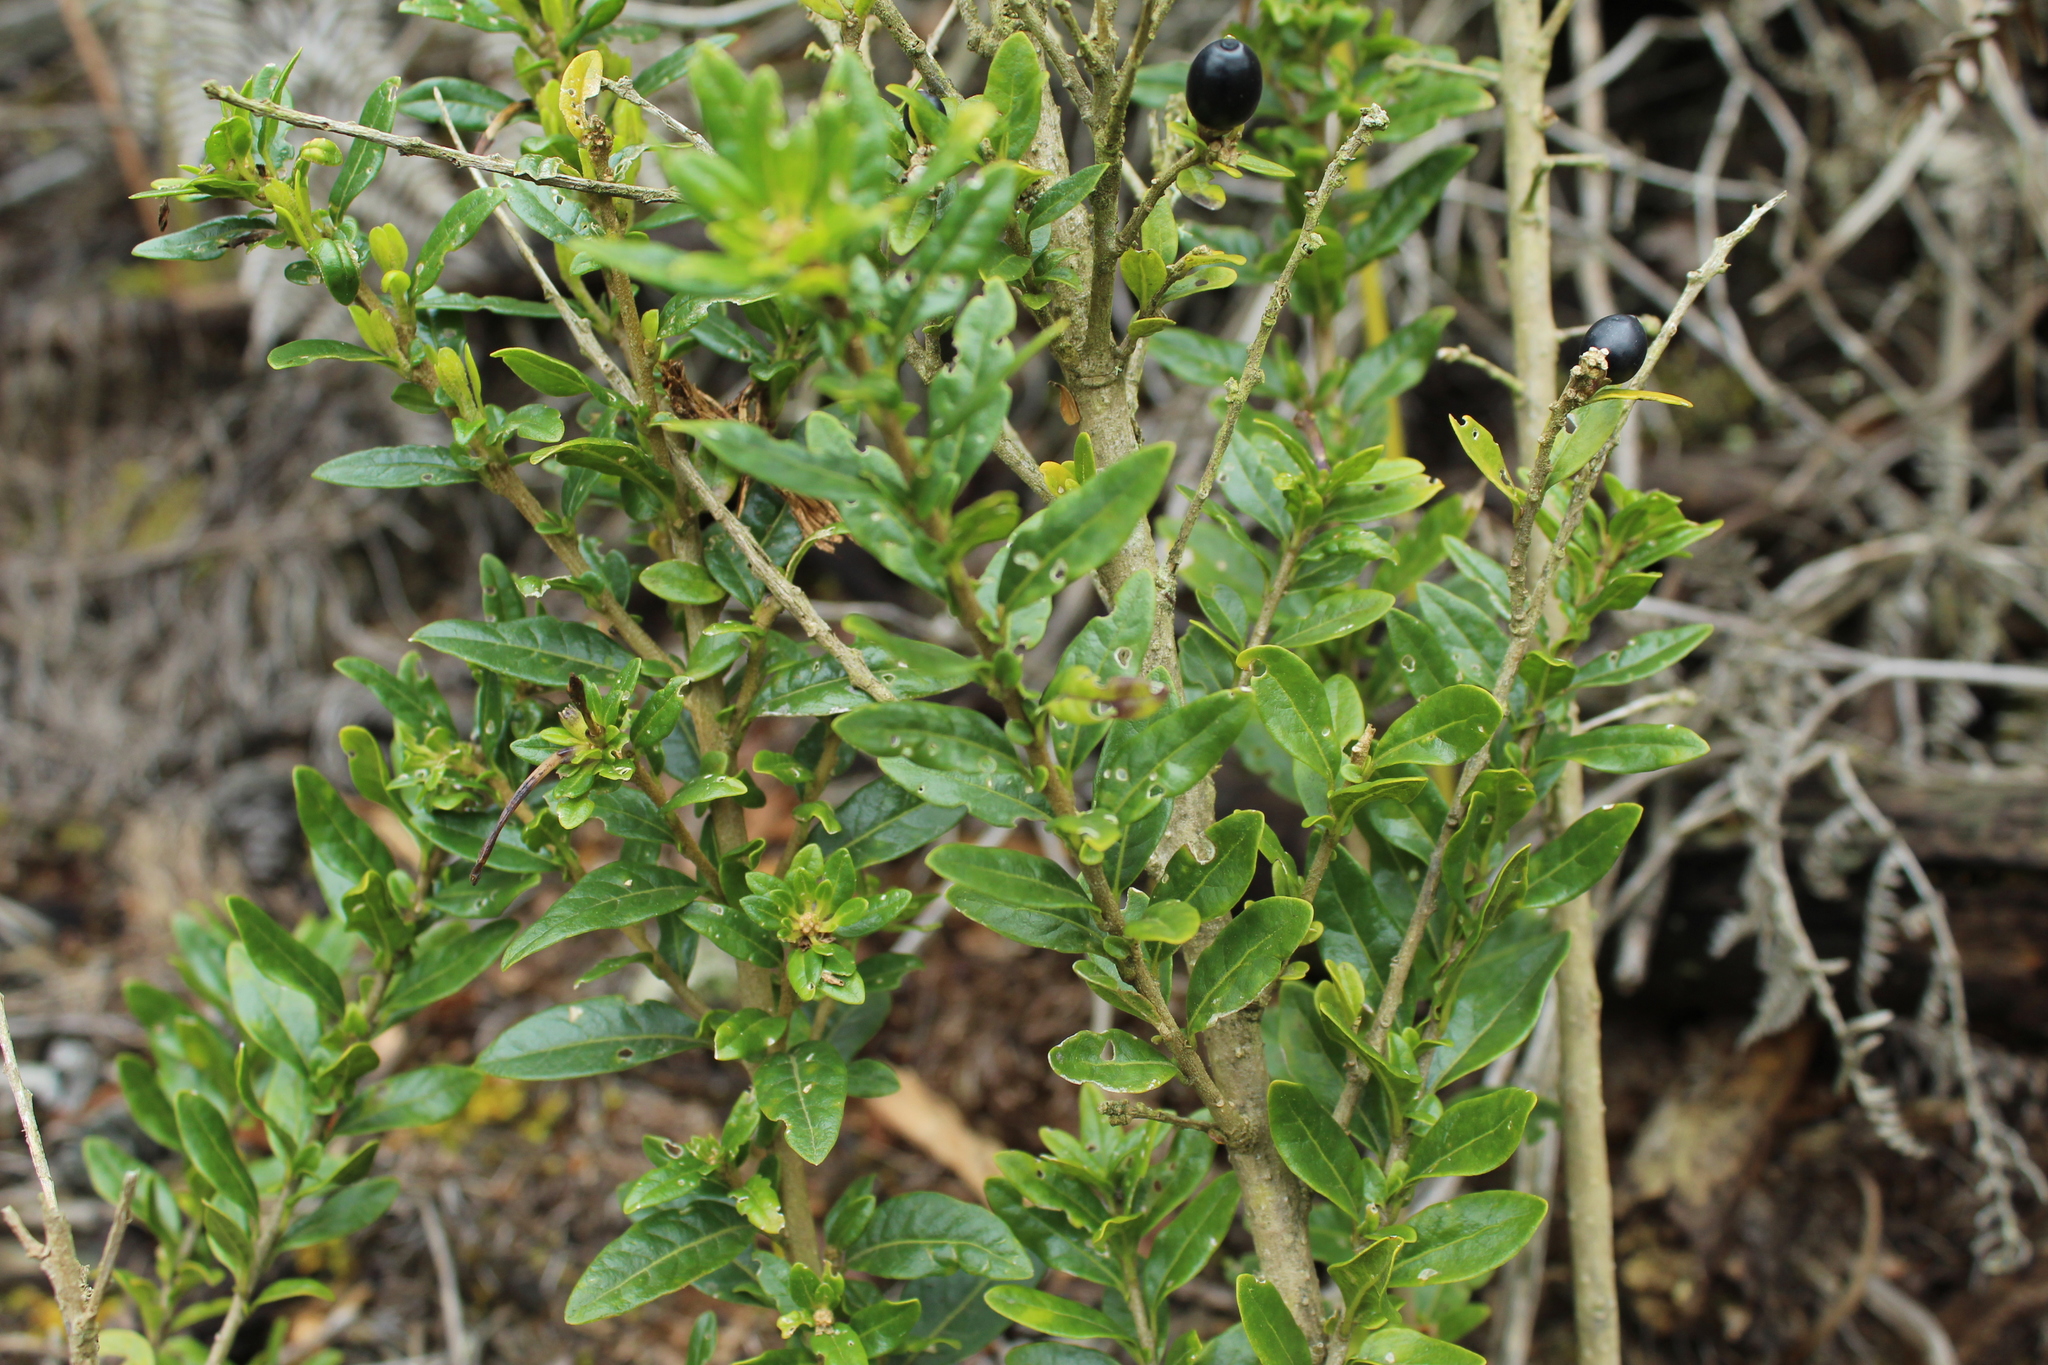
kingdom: Plantae
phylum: Tracheophyta
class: Magnoliopsida
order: Solanales
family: Solanaceae
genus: Cestrum
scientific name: Cestrum buxifolium
